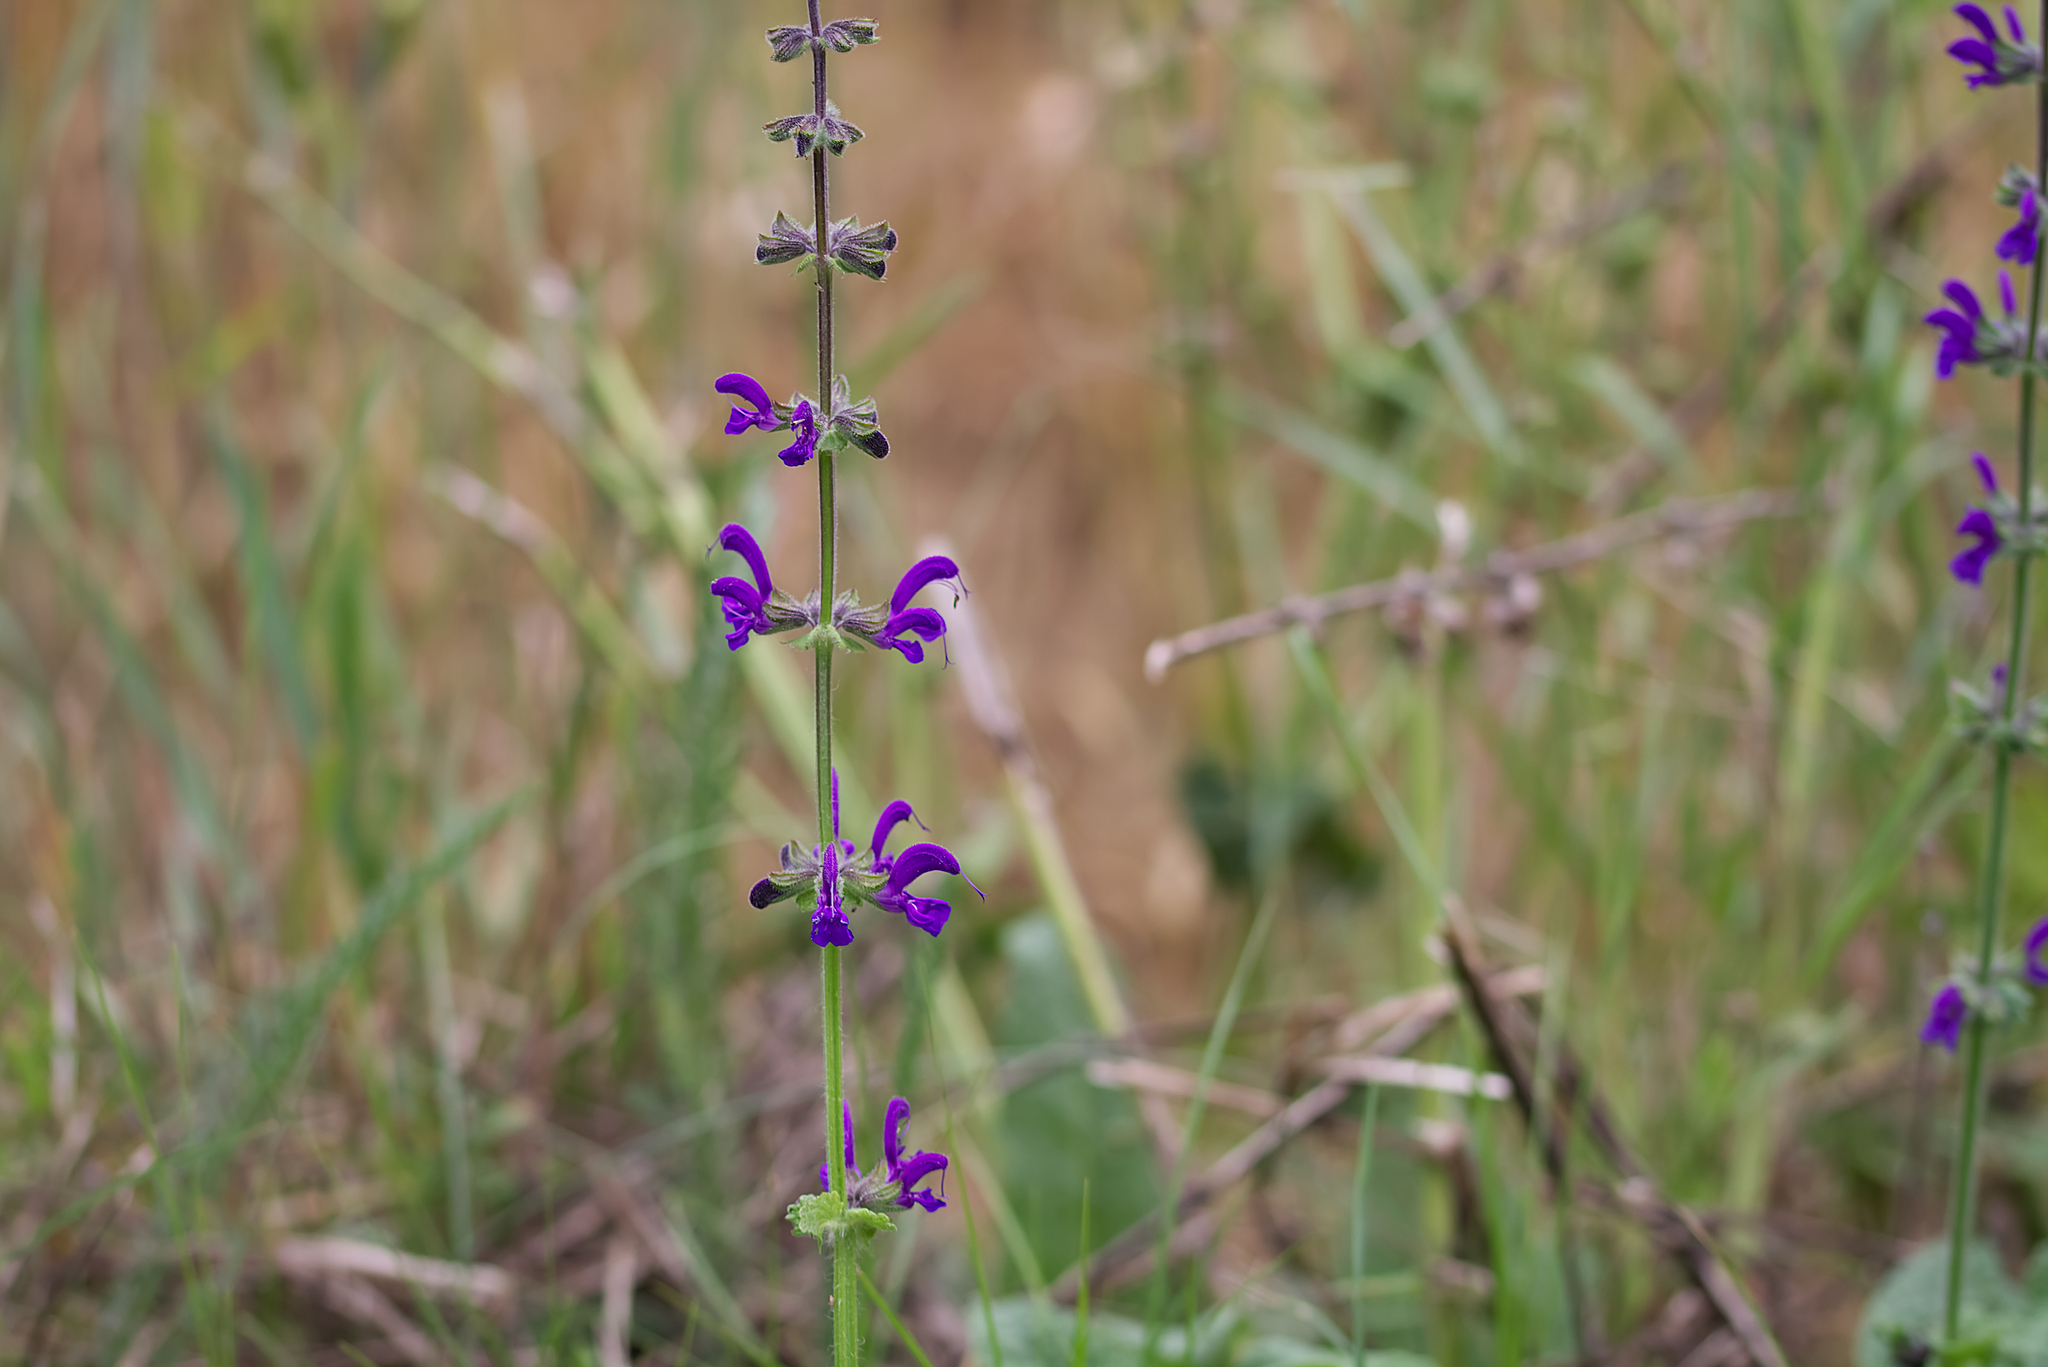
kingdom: Plantae
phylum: Tracheophyta
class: Magnoliopsida
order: Lamiales
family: Lamiaceae
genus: Salvia
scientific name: Salvia pratensis
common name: Meadow sage
